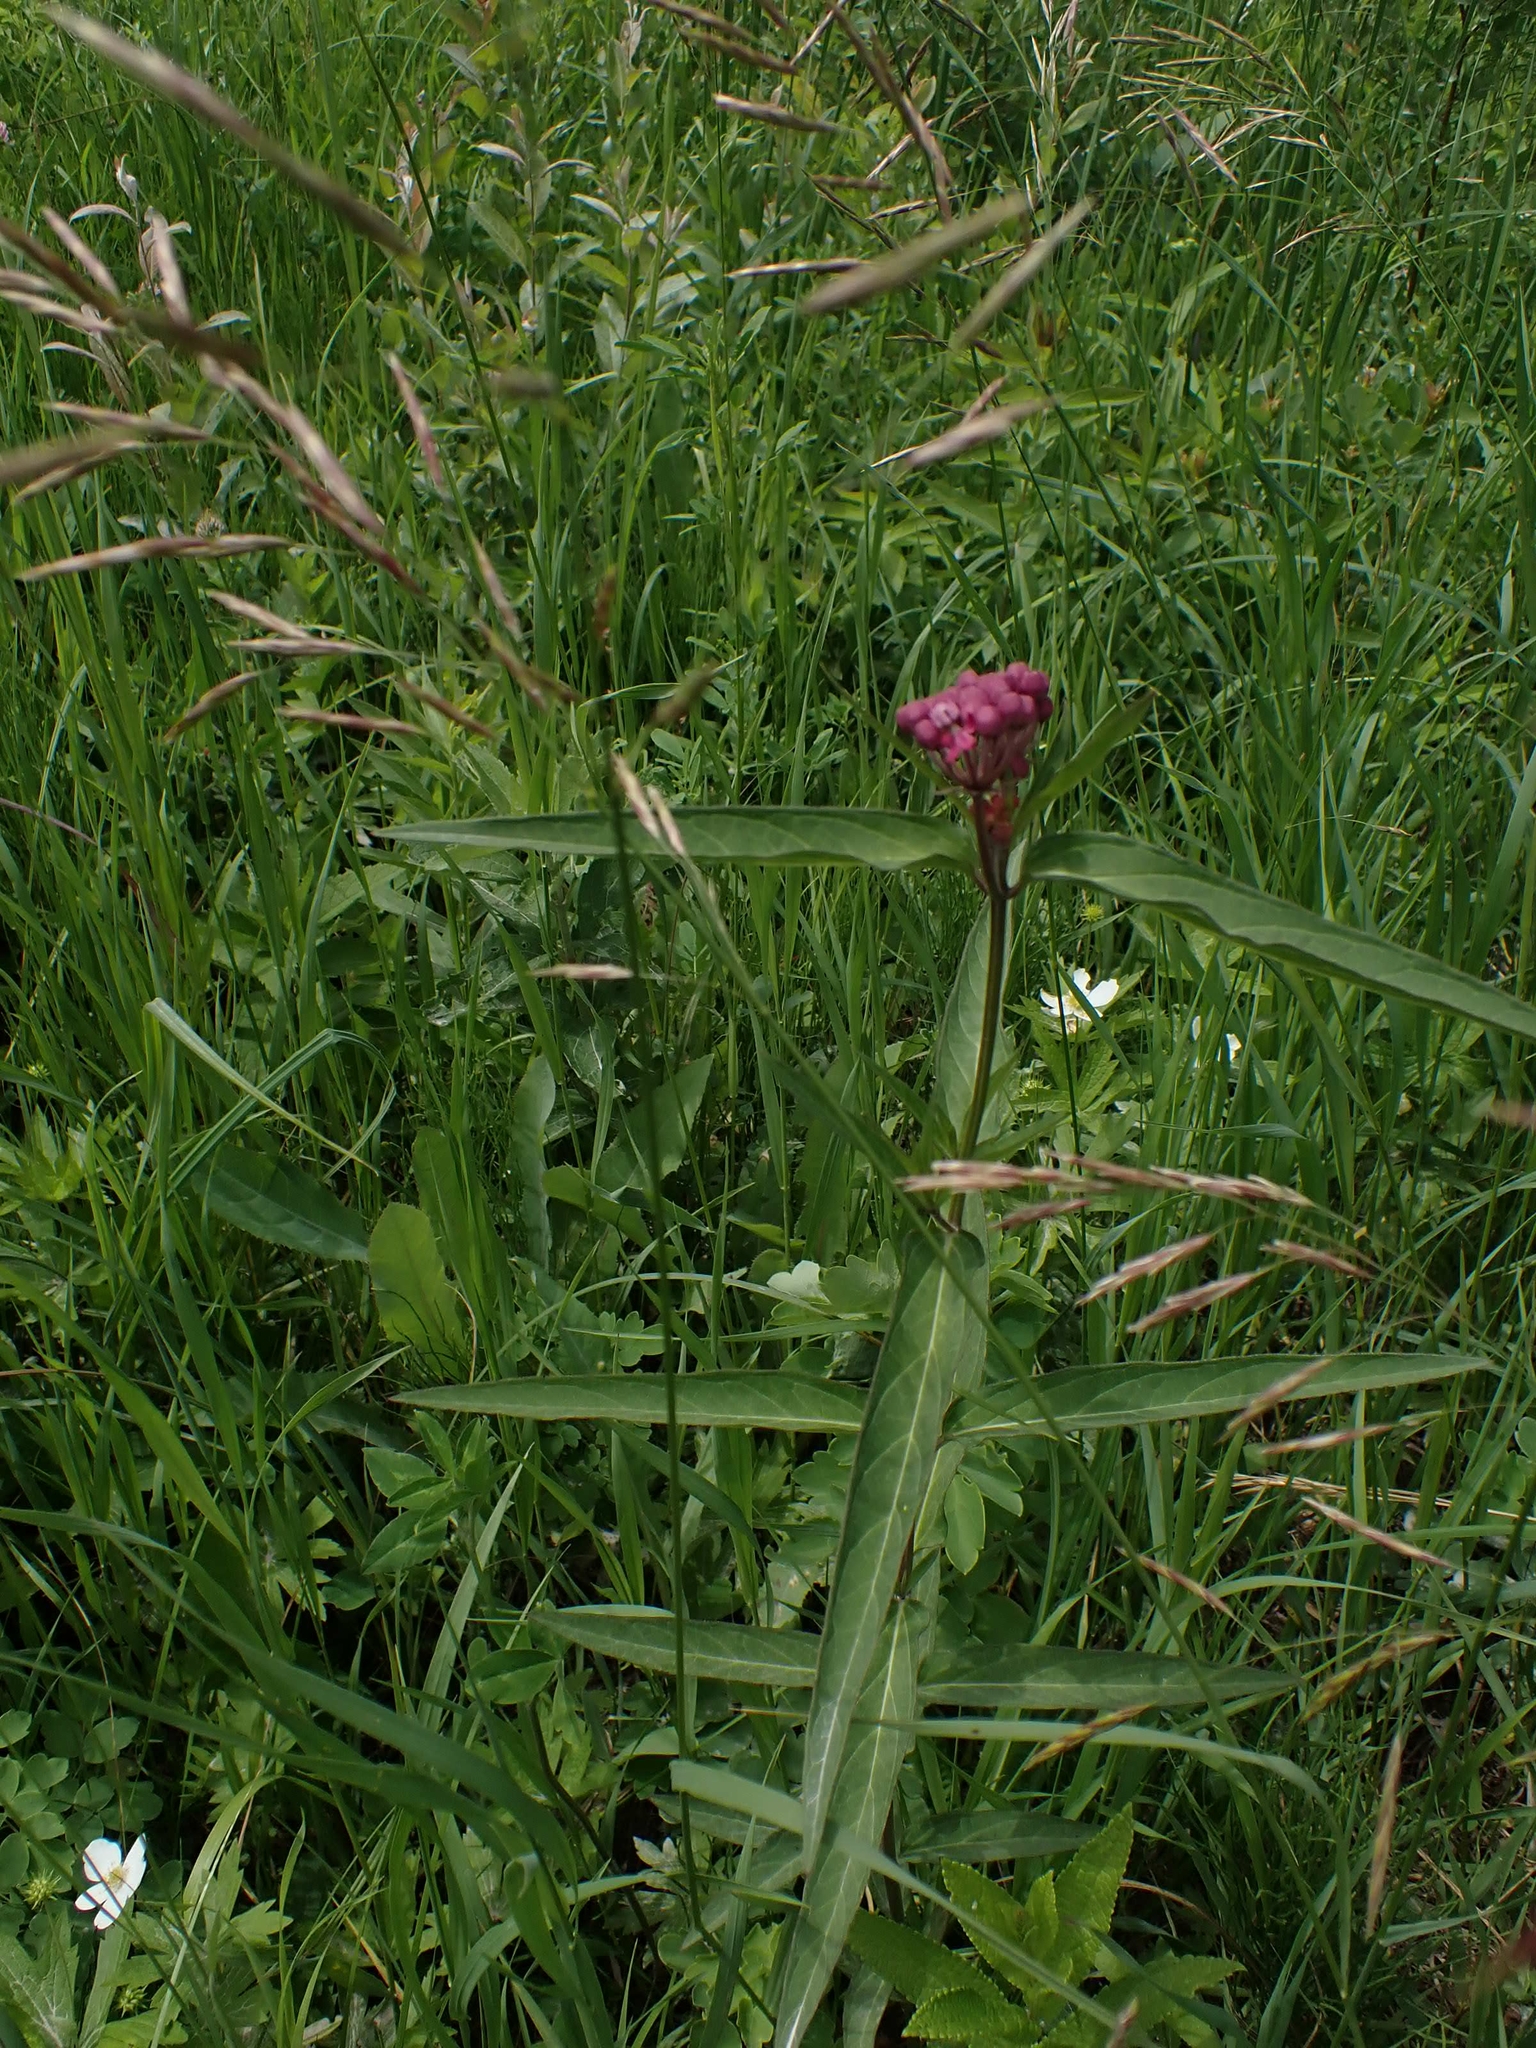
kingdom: Plantae
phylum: Tracheophyta
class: Magnoliopsida
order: Gentianales
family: Apocynaceae
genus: Asclepias
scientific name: Asclepias incarnata
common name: Swamp milkweed
